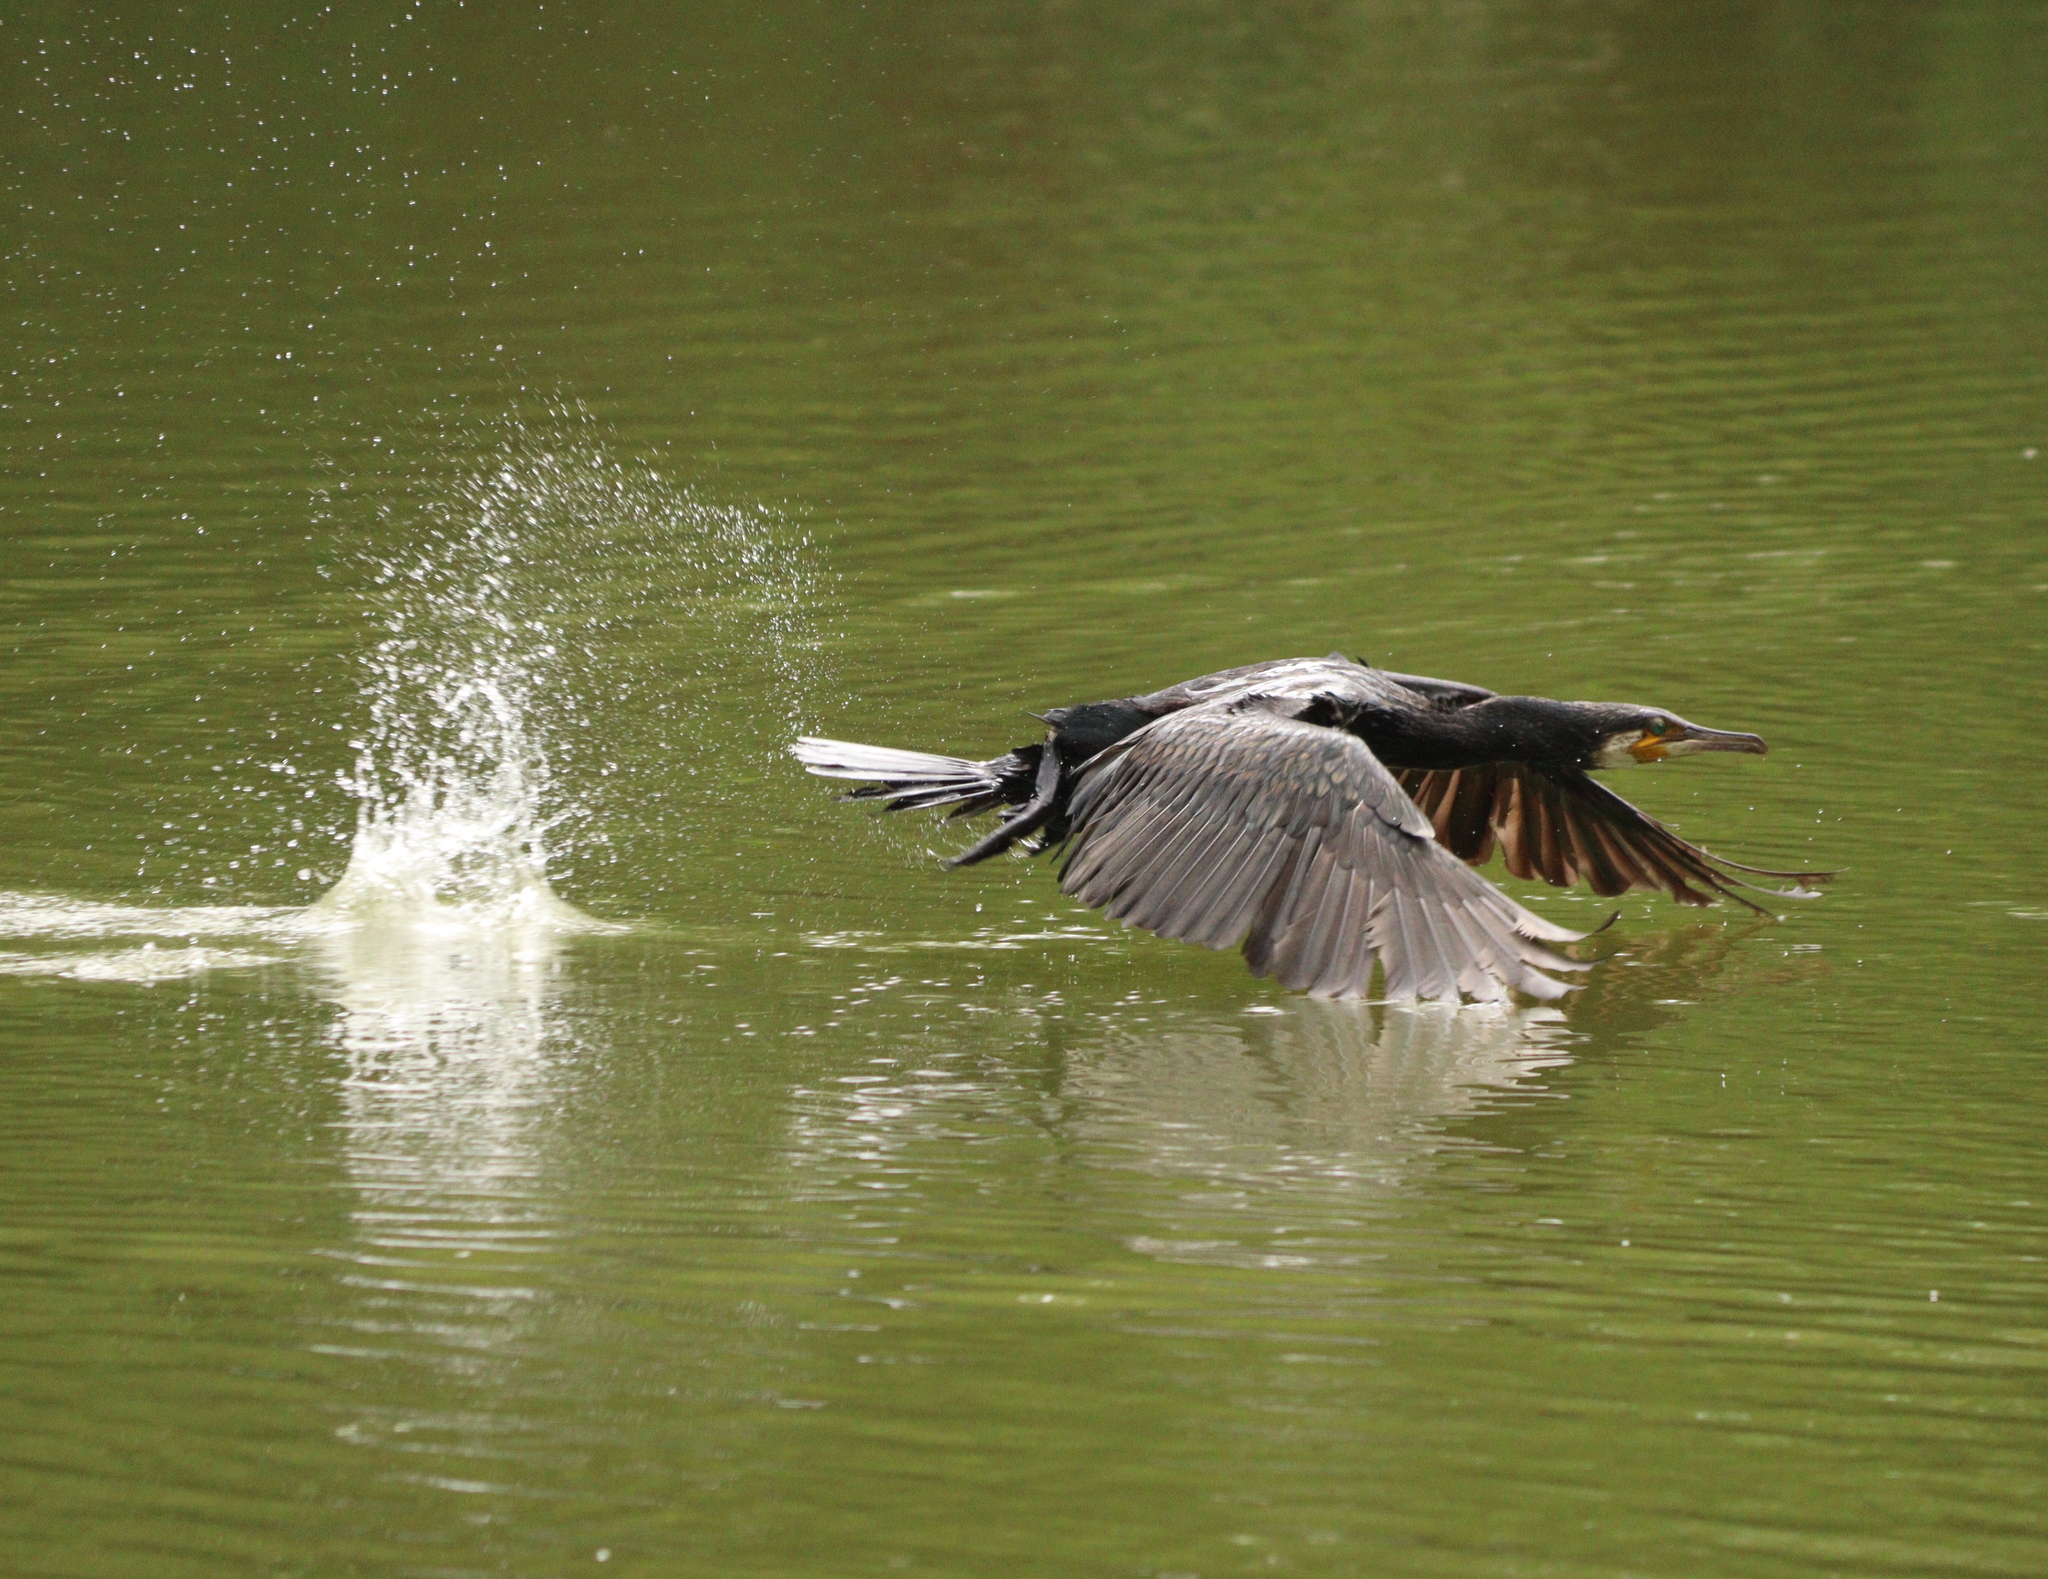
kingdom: Animalia
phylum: Chordata
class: Aves
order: Suliformes
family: Phalacrocoracidae
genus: Phalacrocorax
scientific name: Phalacrocorax carbo
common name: Great cormorant
